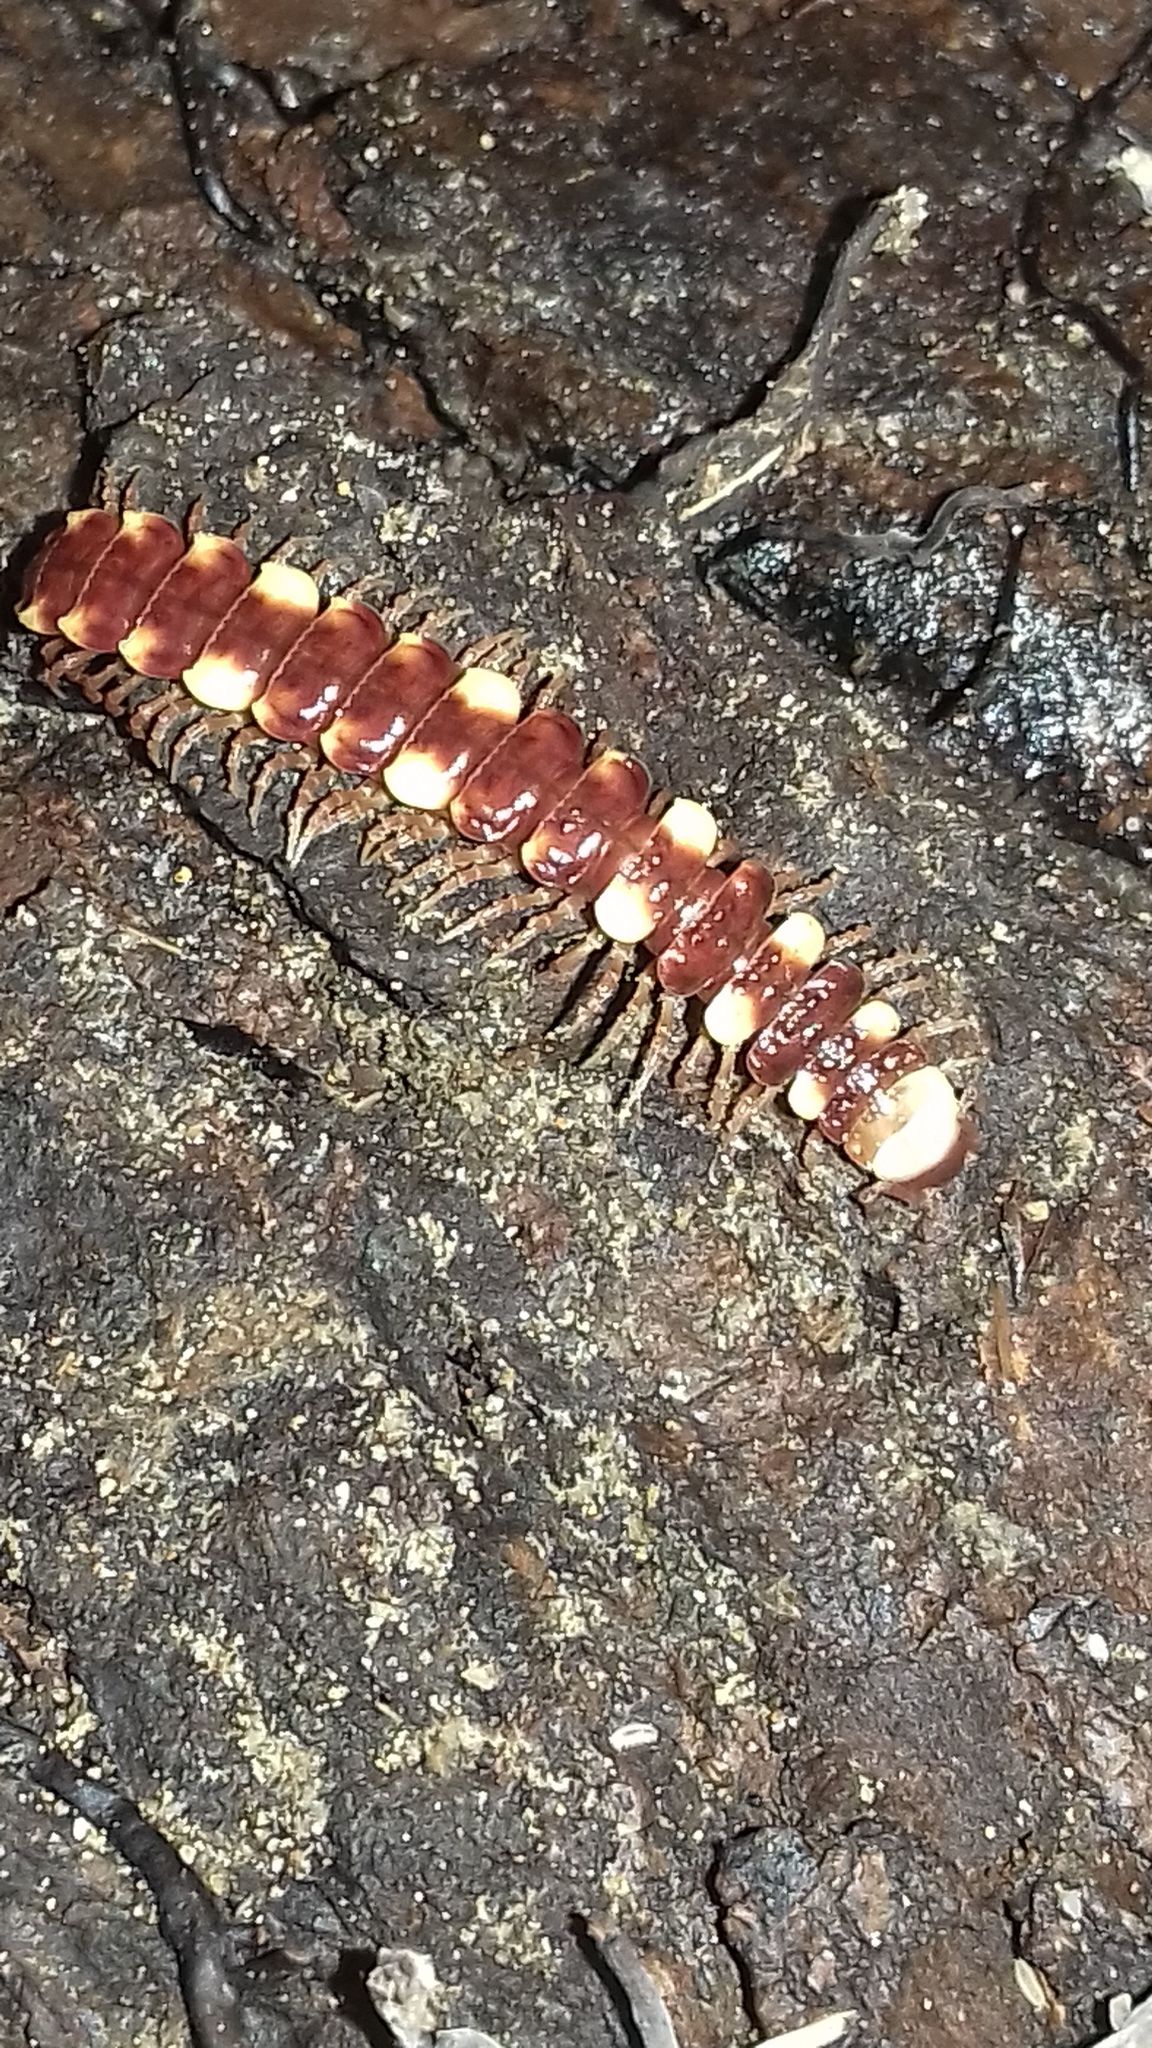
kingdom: Animalia
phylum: Arthropoda
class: Diplopoda
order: Polydesmida
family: Polydesmidae
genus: Polydesmus
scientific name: Polydesmus collaris
